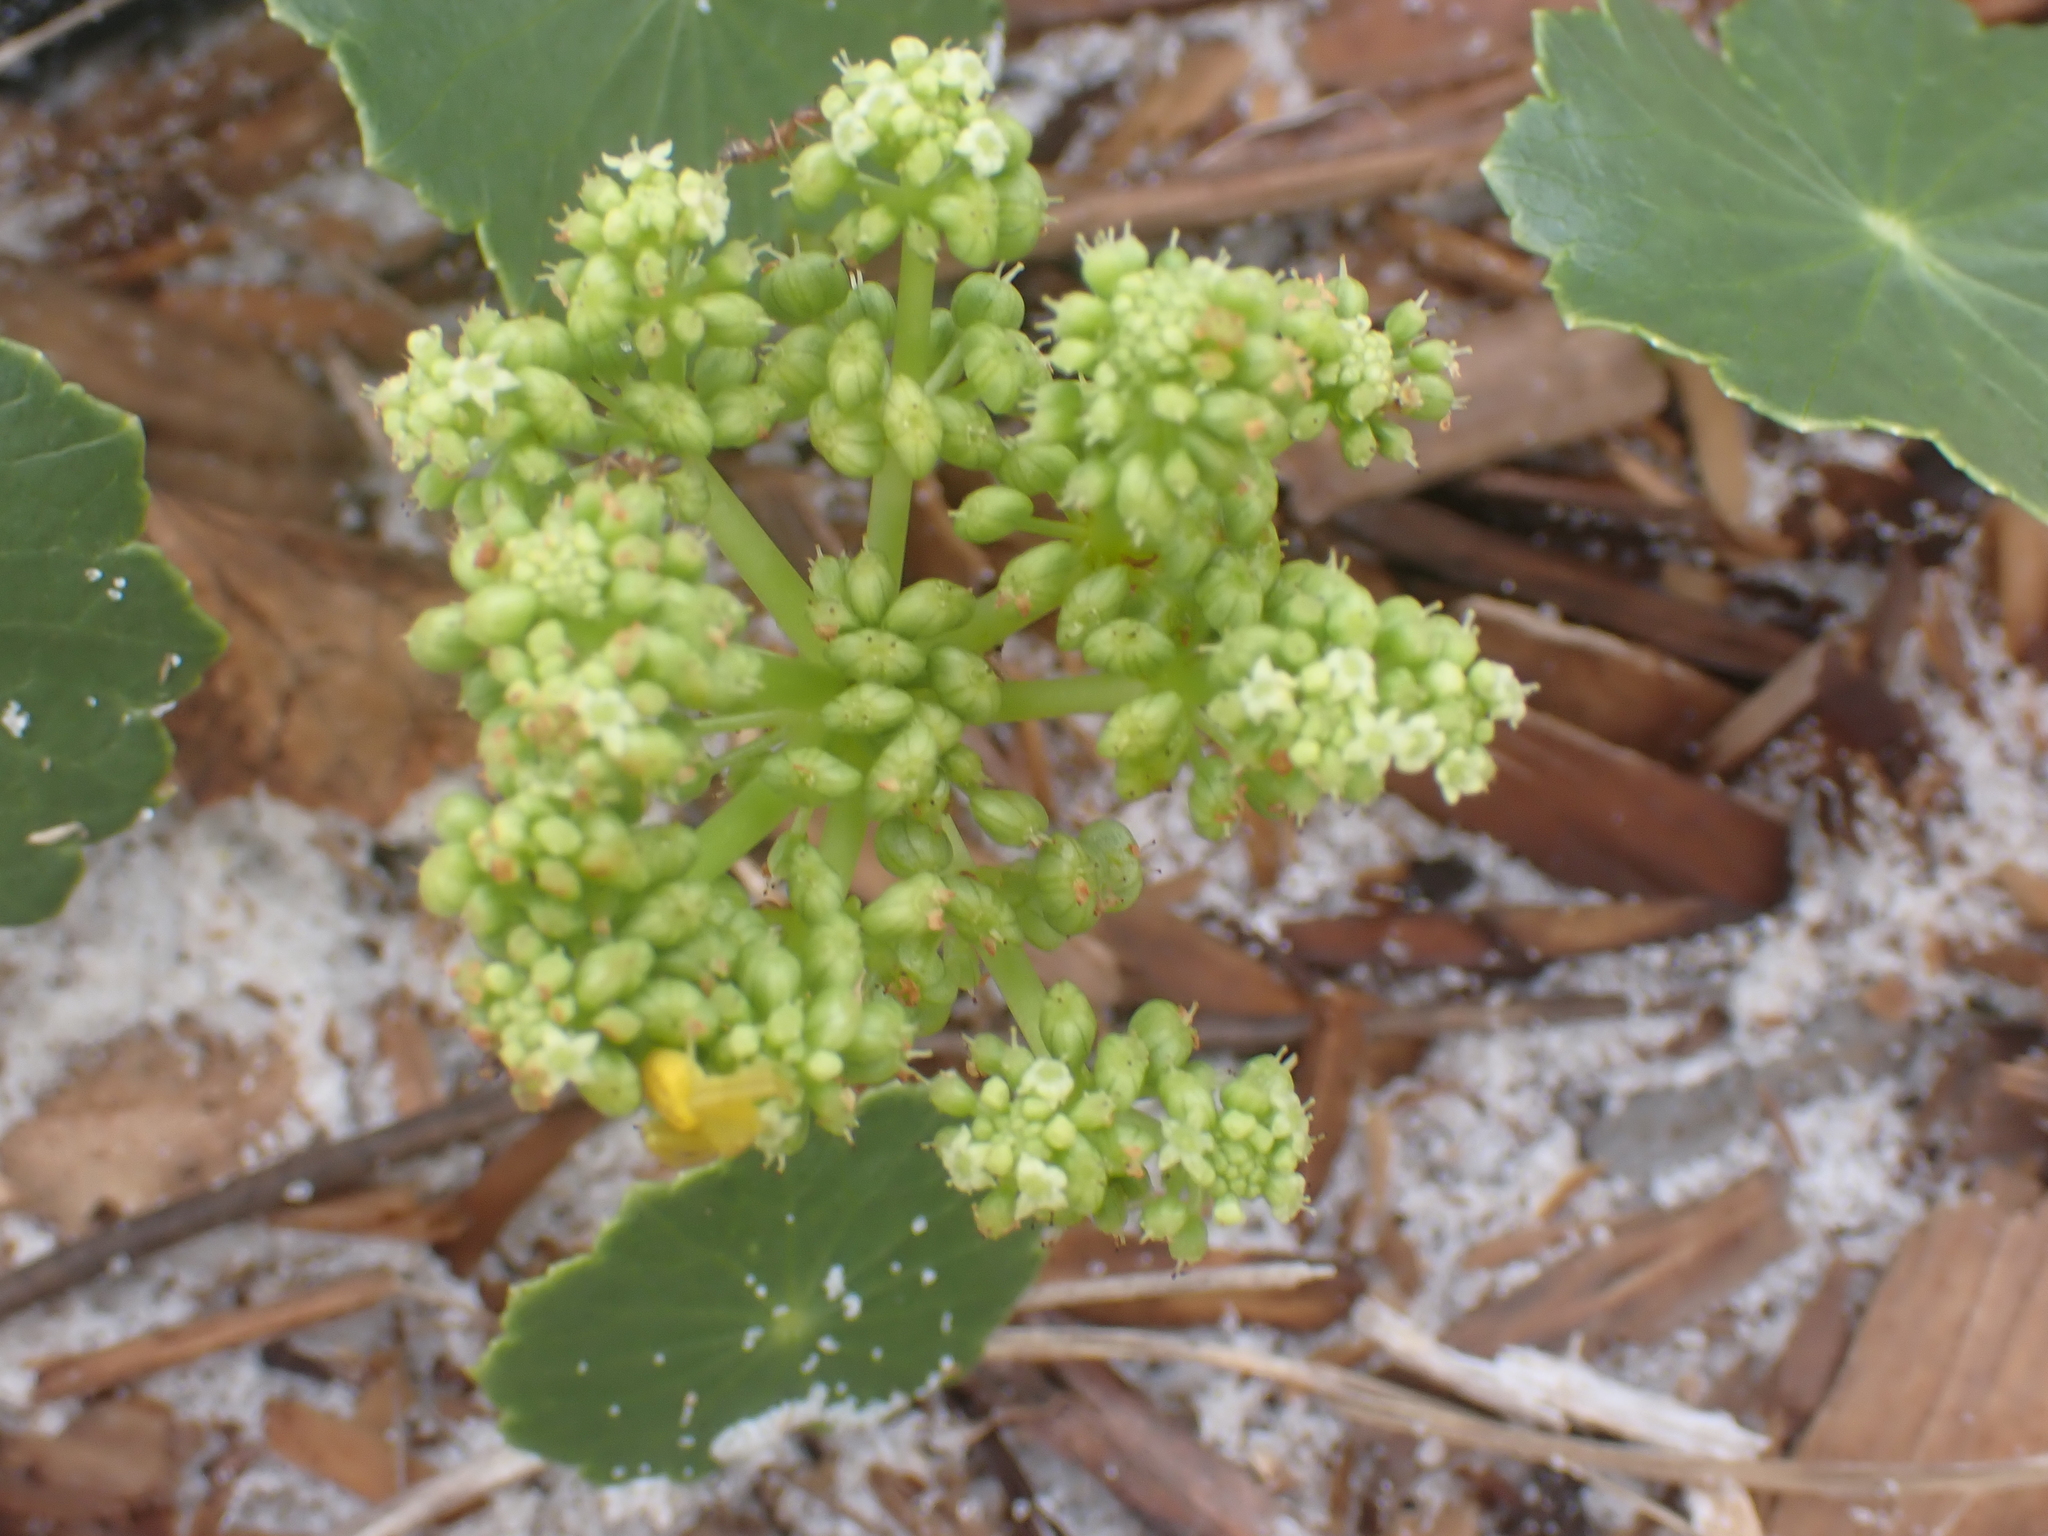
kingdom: Plantae
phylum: Tracheophyta
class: Magnoliopsida
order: Apiales
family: Araliaceae
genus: Hydrocotyle
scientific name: Hydrocotyle bonariensis
